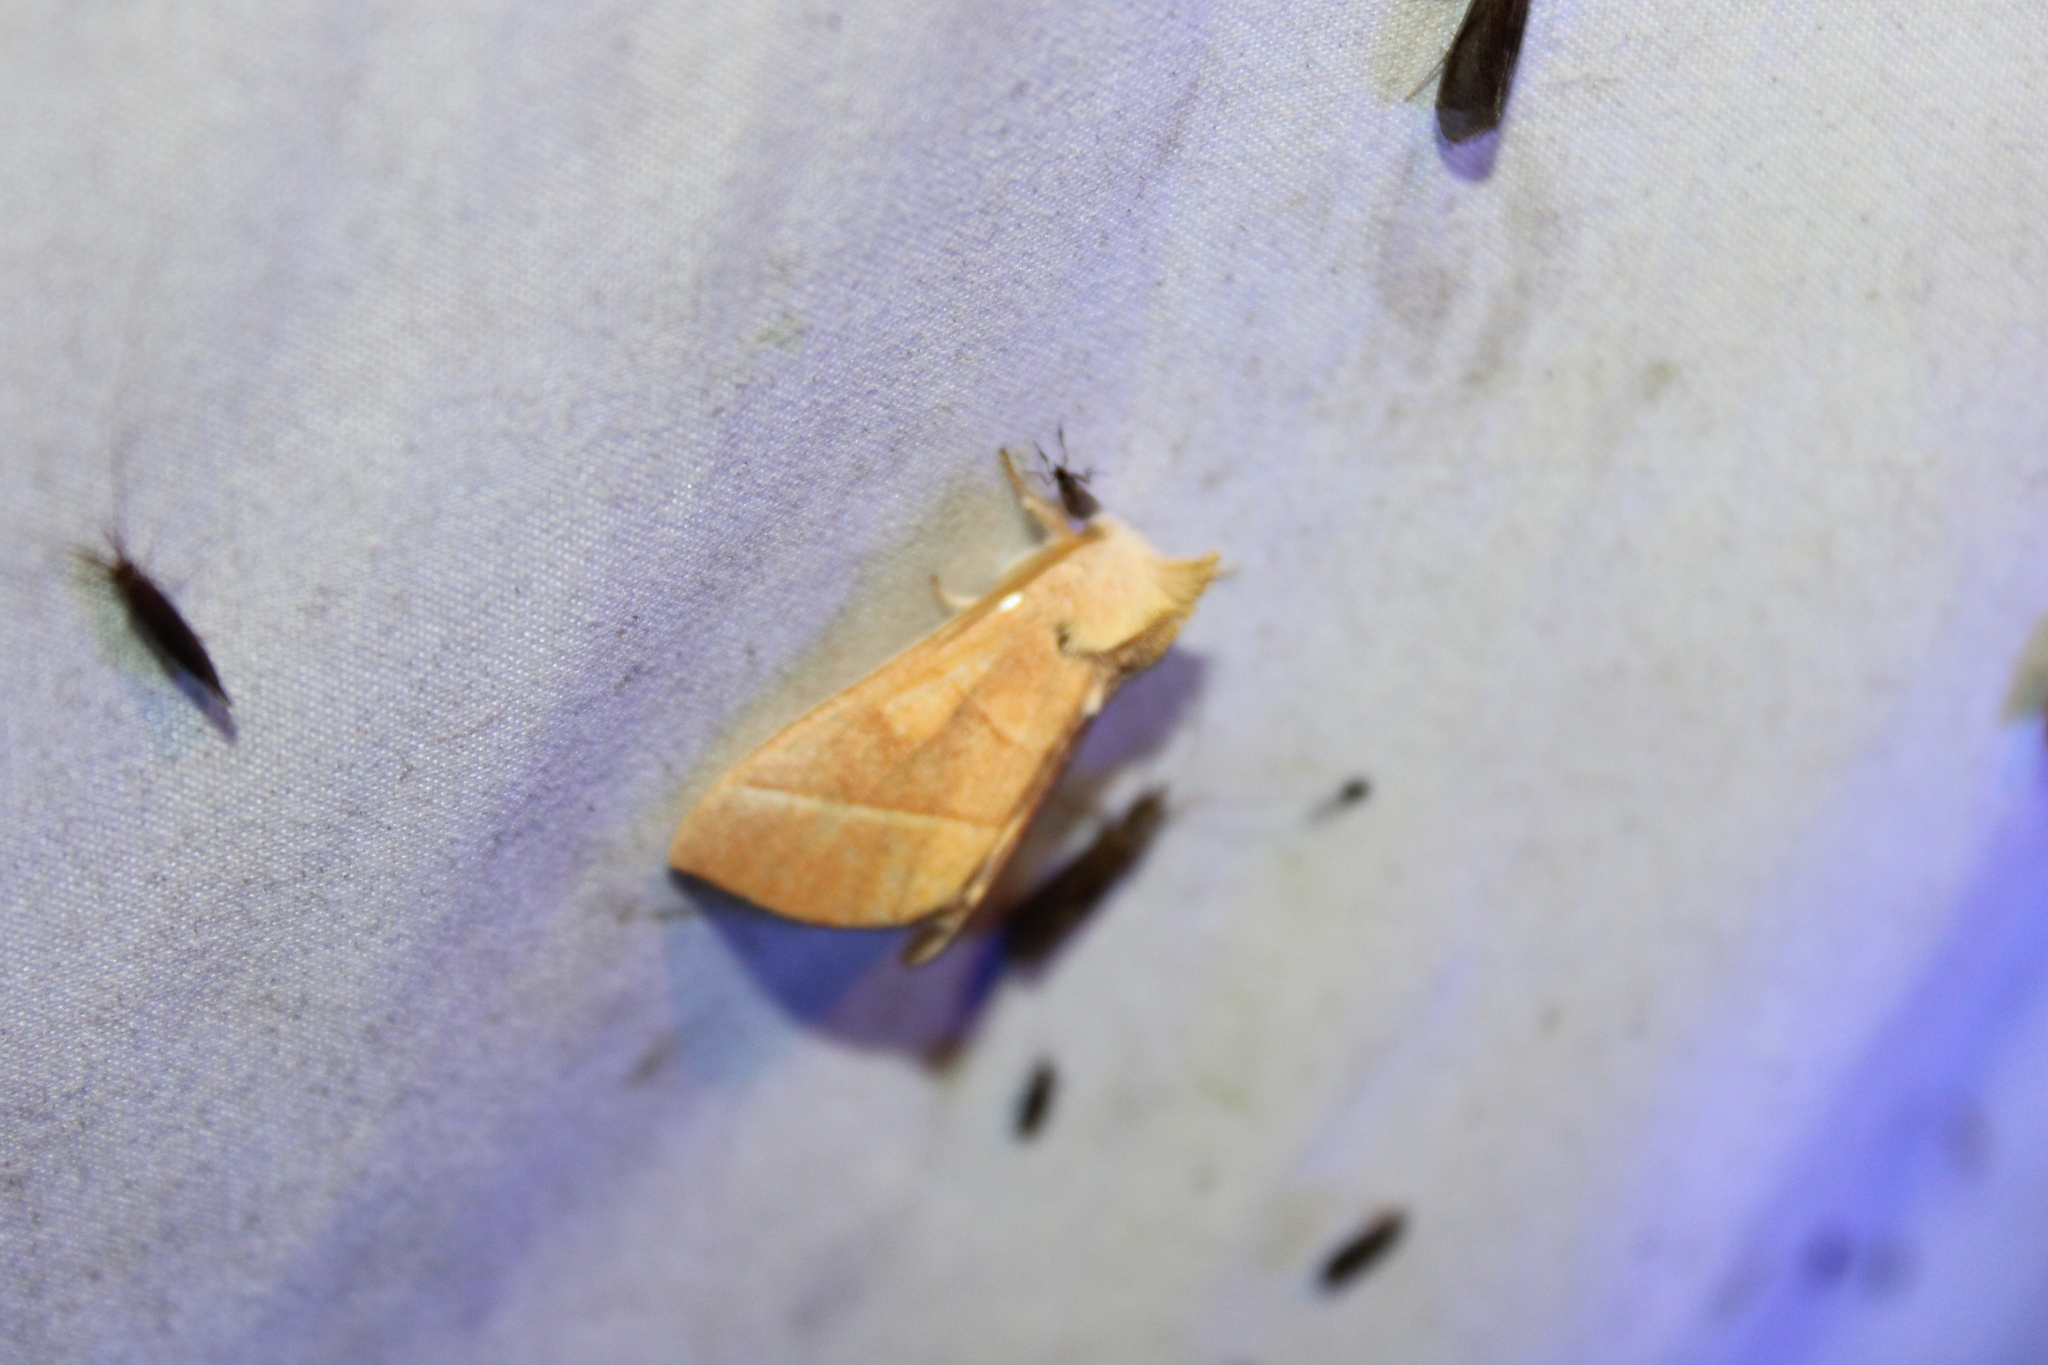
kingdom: Animalia
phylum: Arthropoda
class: Insecta
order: Lepidoptera
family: Notodontidae
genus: Nadata
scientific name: Nadata gibbosa
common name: White-dotted prominent
